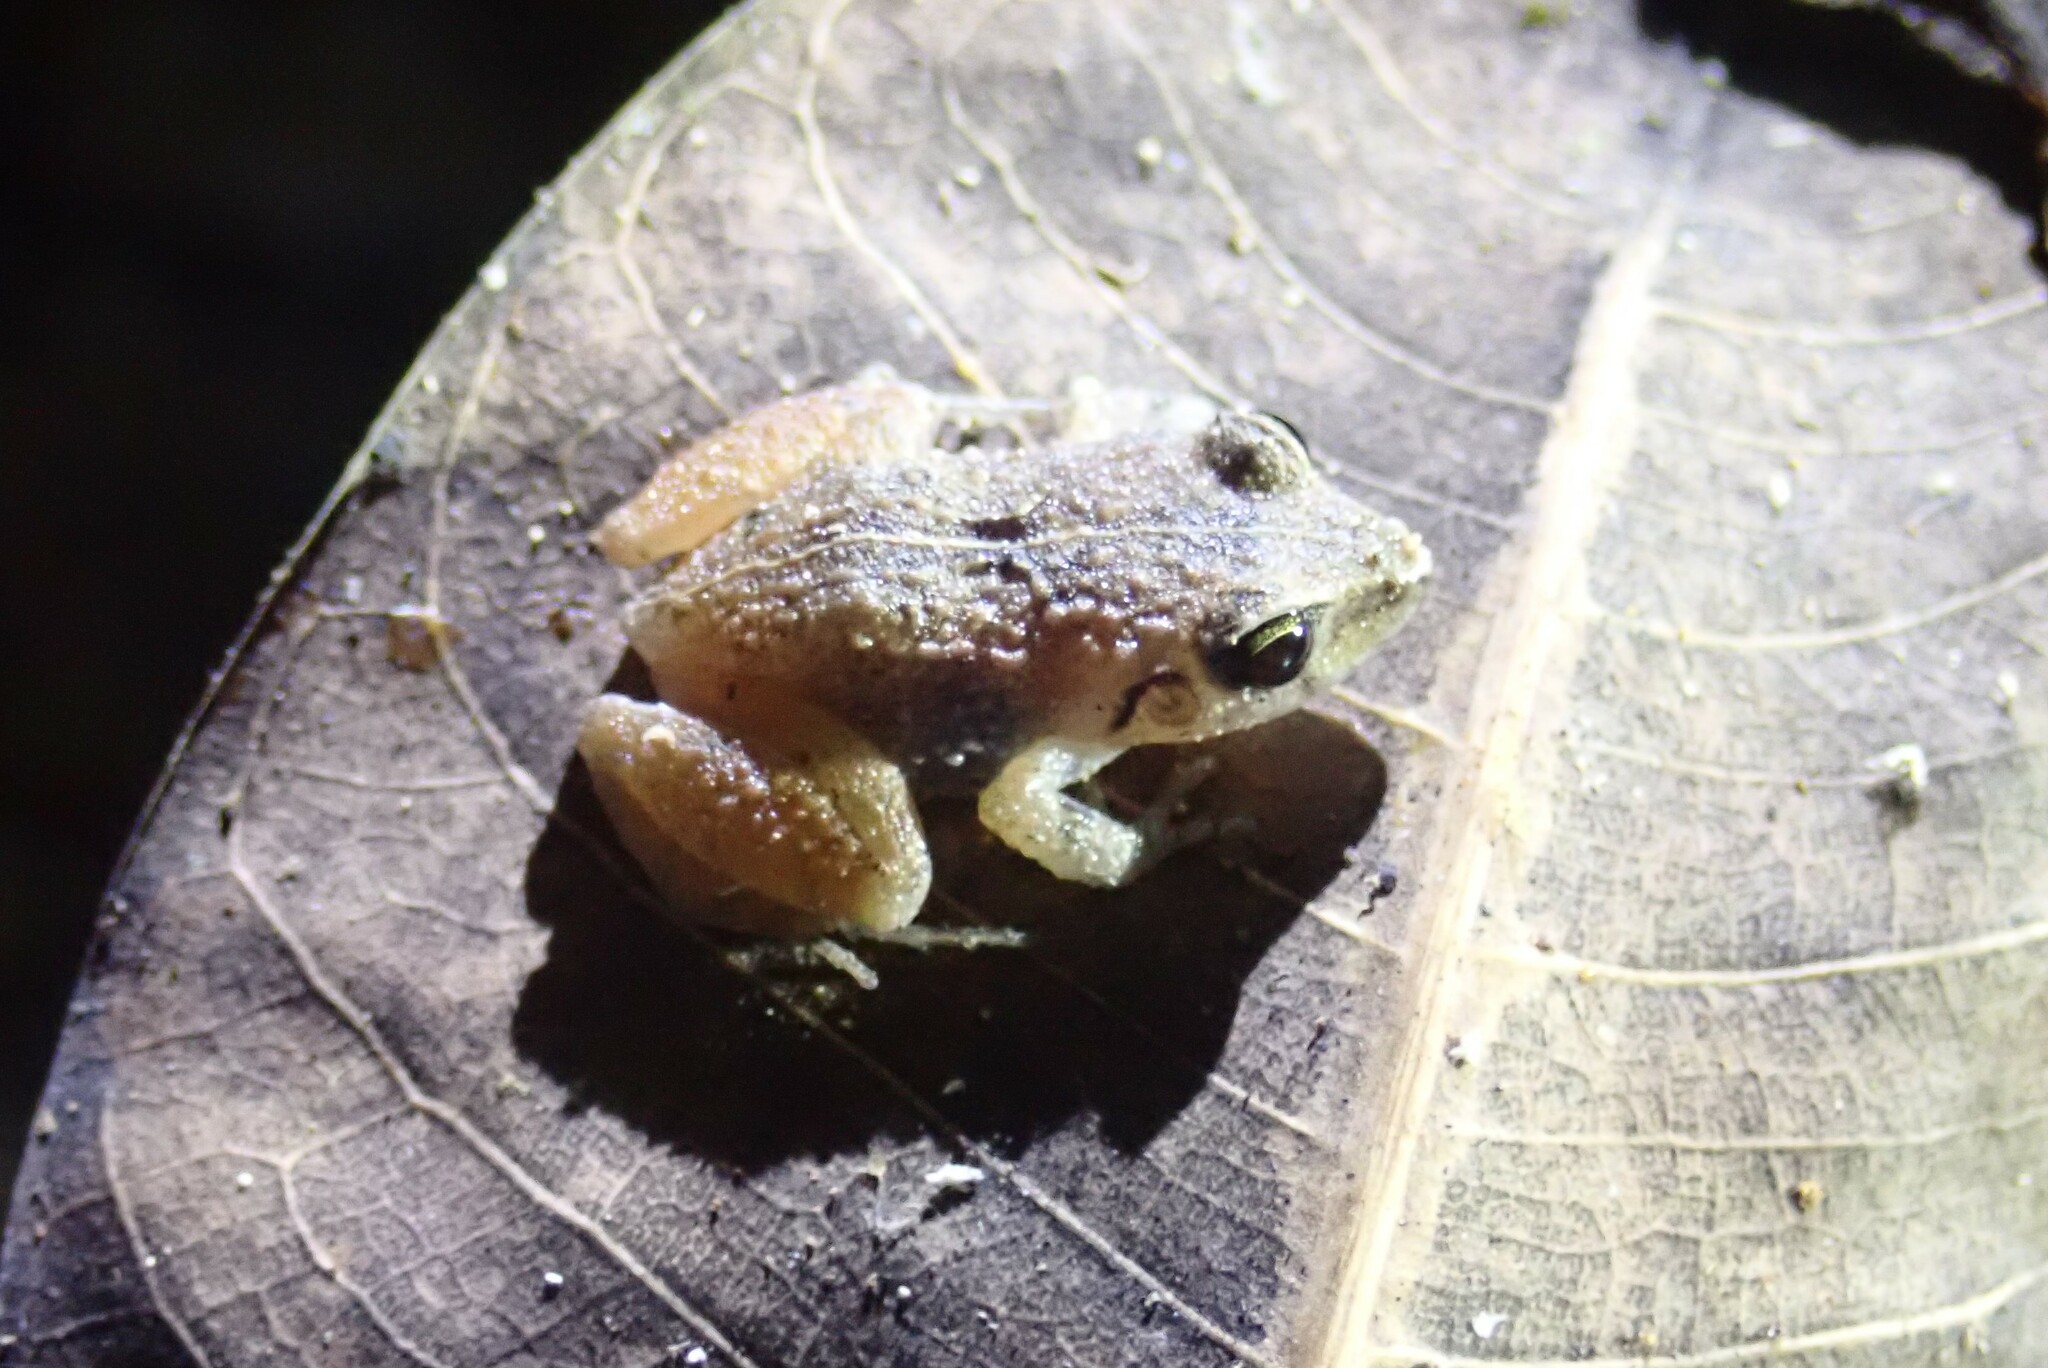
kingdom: Animalia
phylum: Chordata
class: Amphibia
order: Anura
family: Craugastoridae
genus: Craugastor
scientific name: Craugastor stejnegerianus
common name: Stejneger's robber frog
